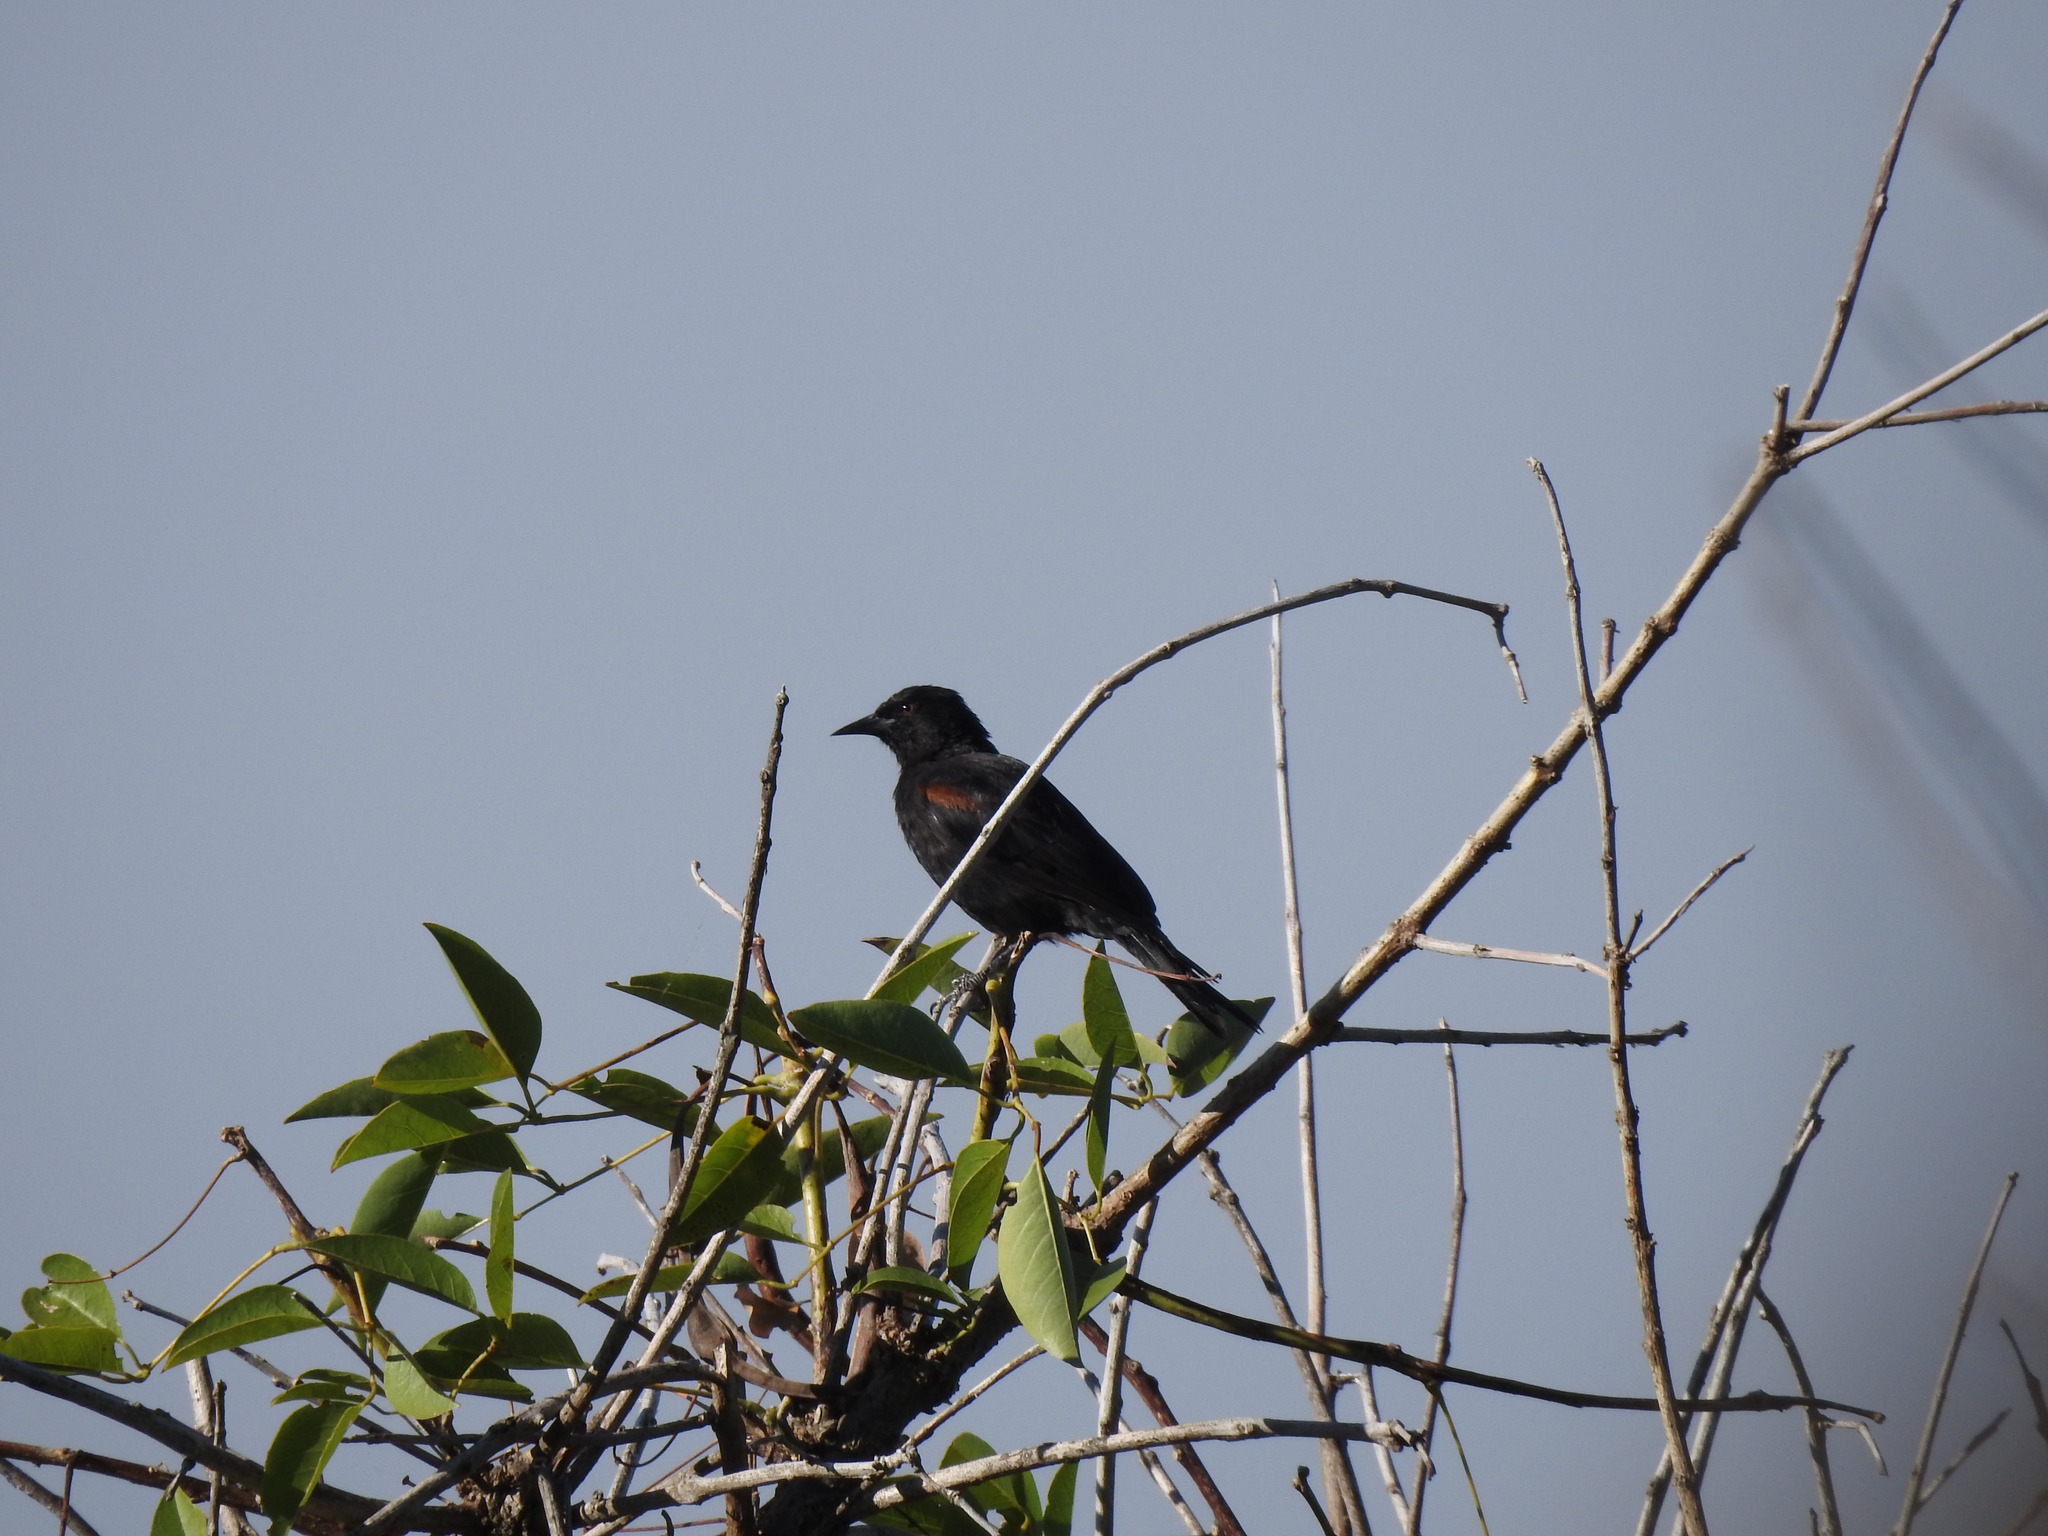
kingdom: Animalia
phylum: Chordata
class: Aves
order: Passeriformes
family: Icteridae
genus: Icterus
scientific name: Icterus cayanensis
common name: Epaulet oriole
